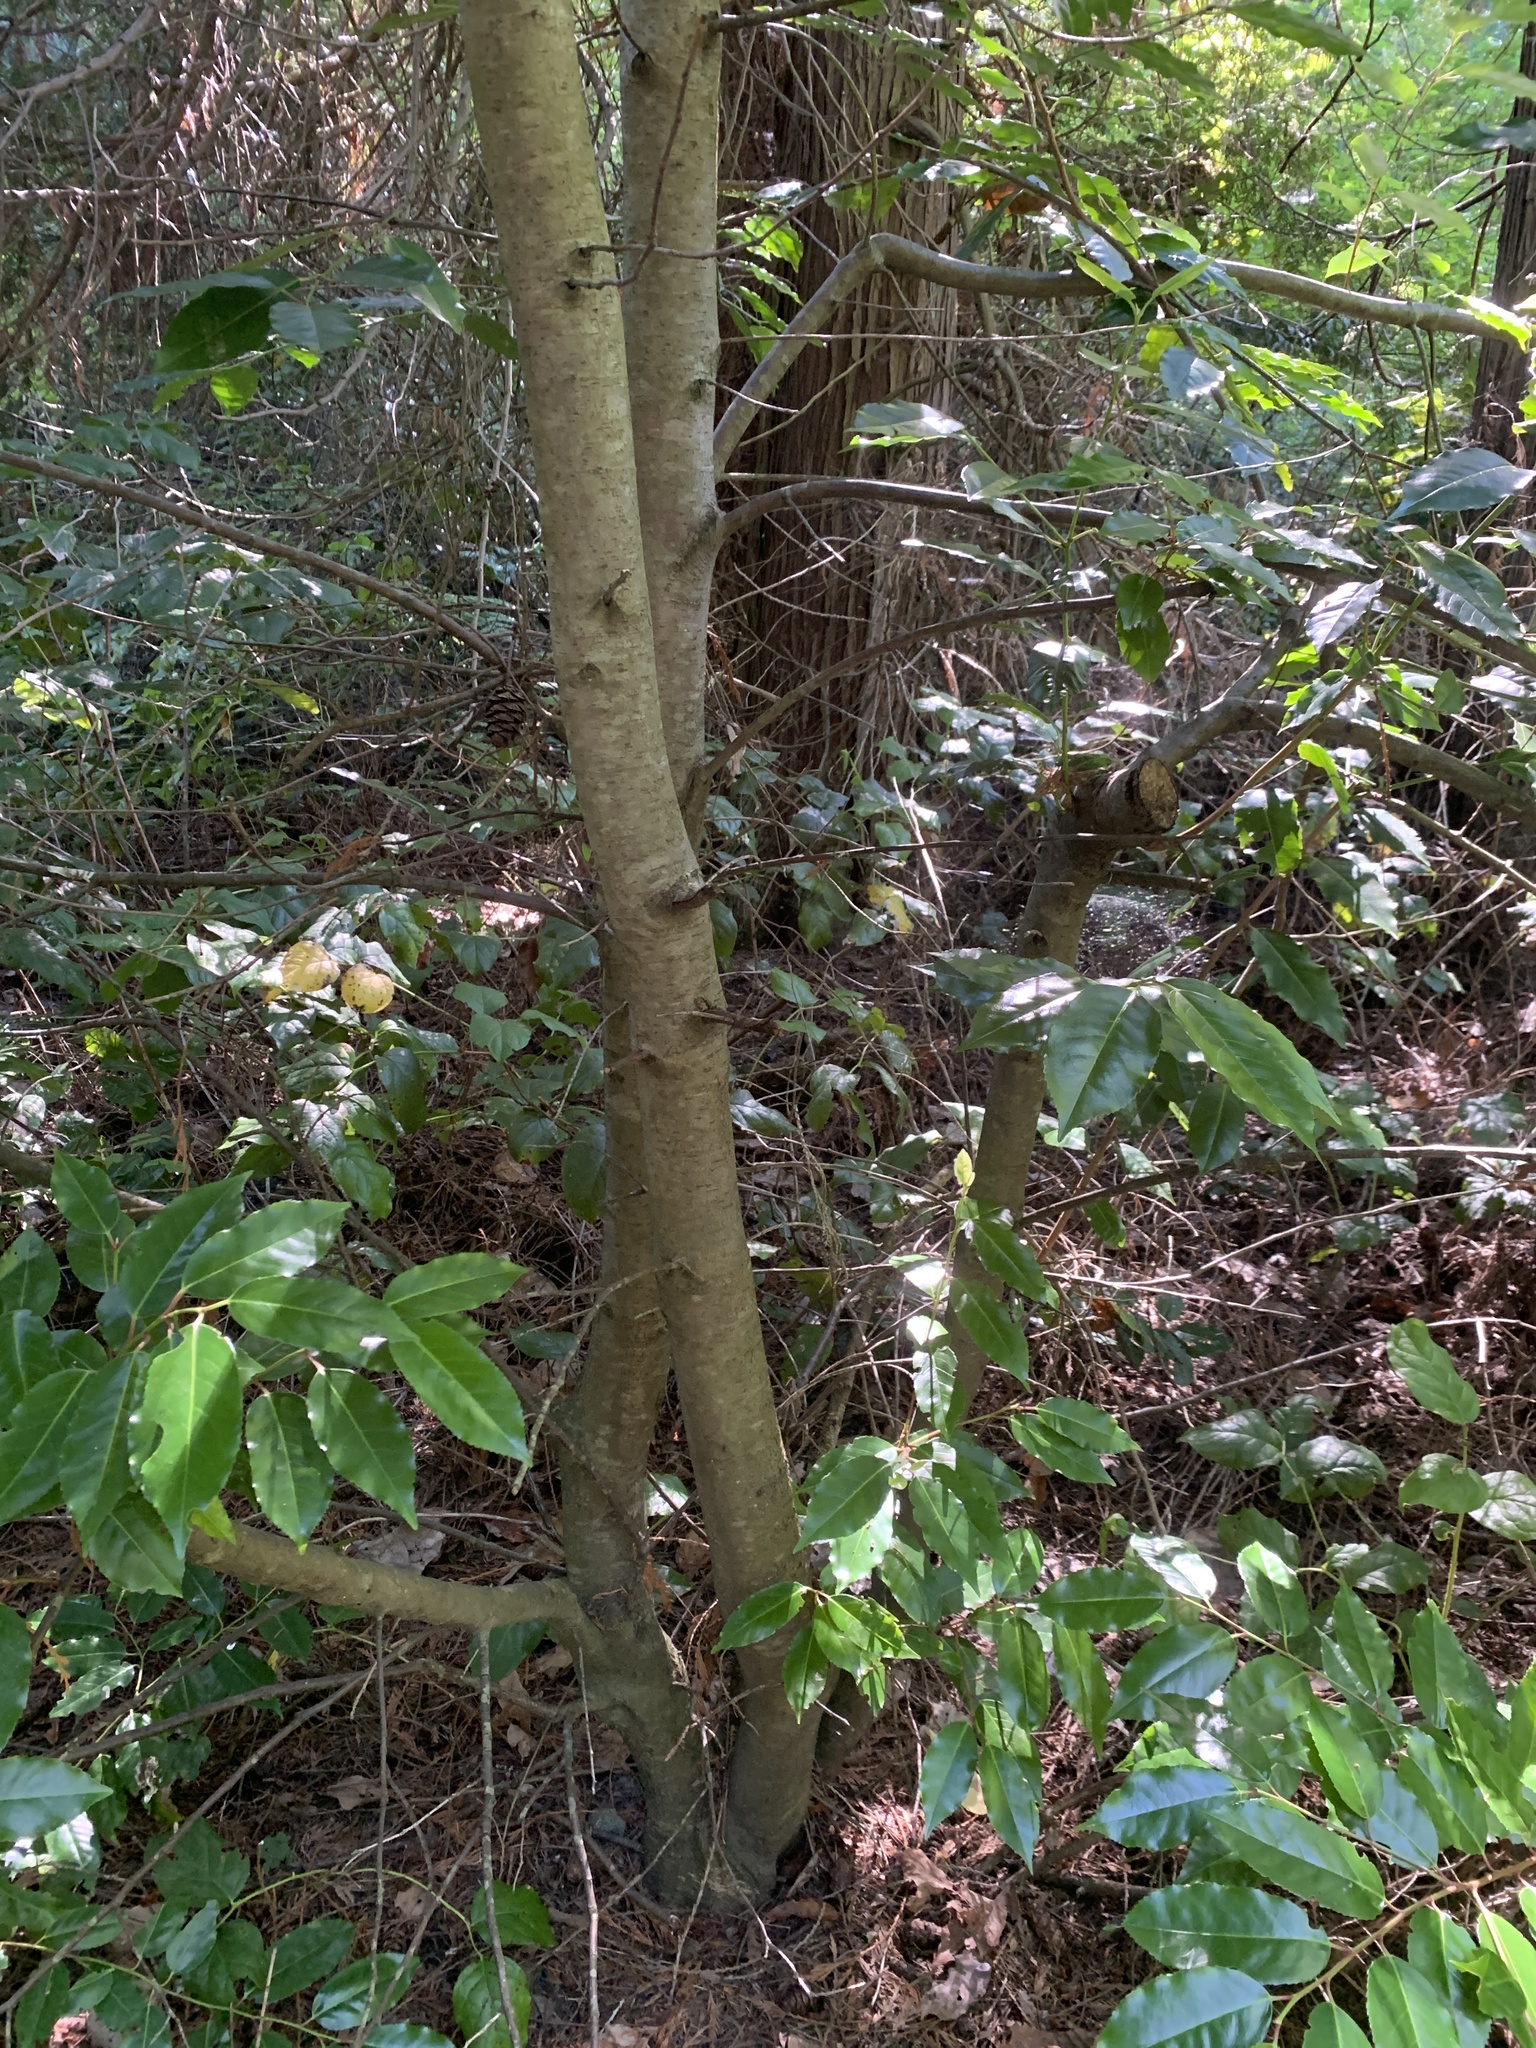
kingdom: Plantae
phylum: Tracheophyta
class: Magnoliopsida
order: Rosales
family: Rosaceae
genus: Prunus
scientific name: Prunus lusitanica
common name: Portugal laurel
